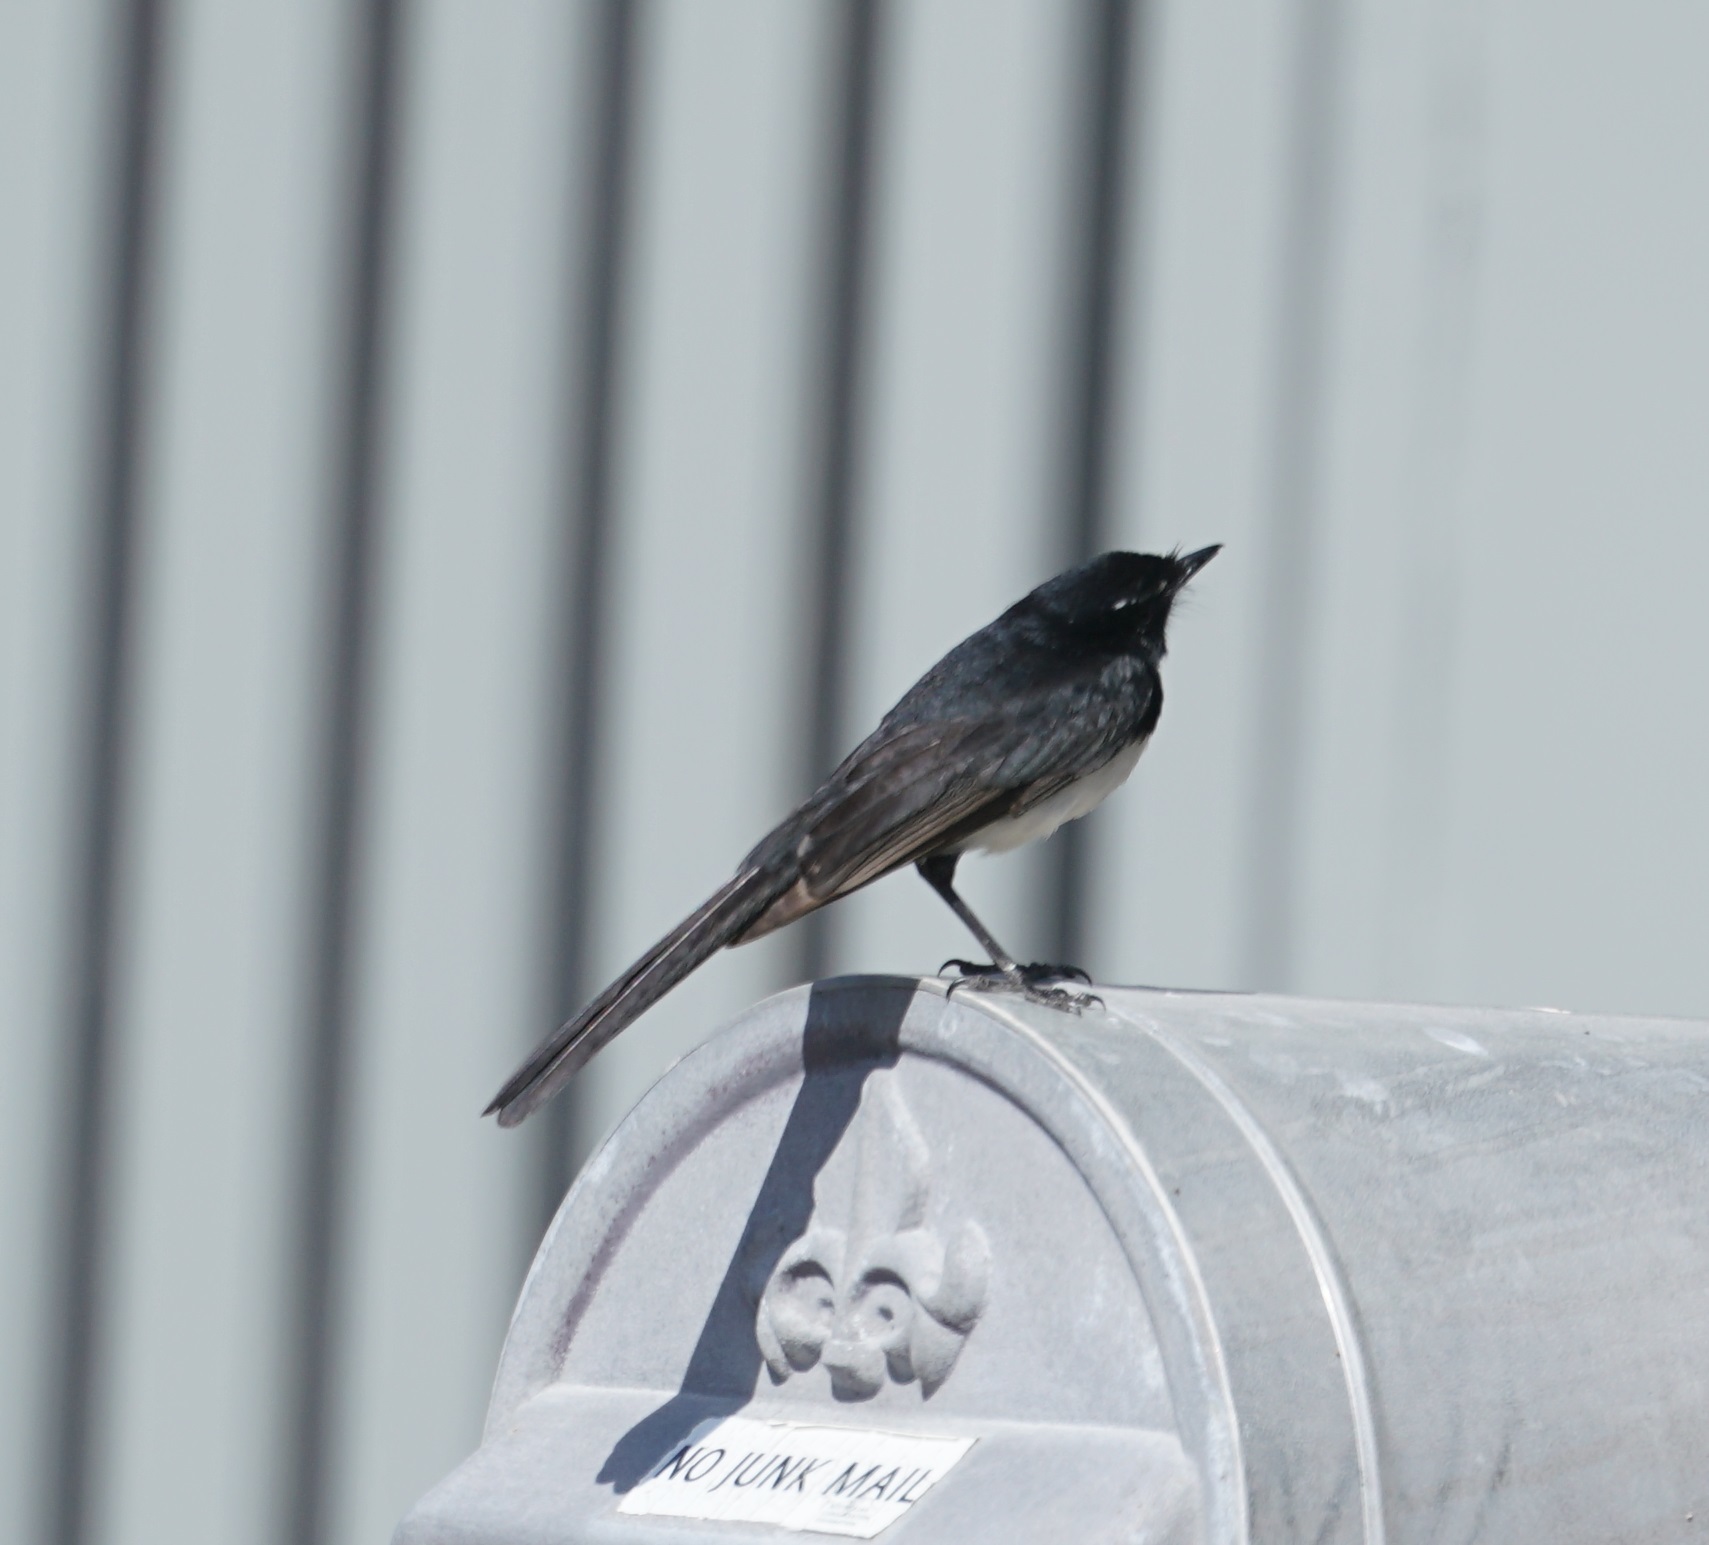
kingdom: Animalia
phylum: Chordata
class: Aves
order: Passeriformes
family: Rhipiduridae
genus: Rhipidura
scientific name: Rhipidura leucophrys
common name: Willie wagtail
